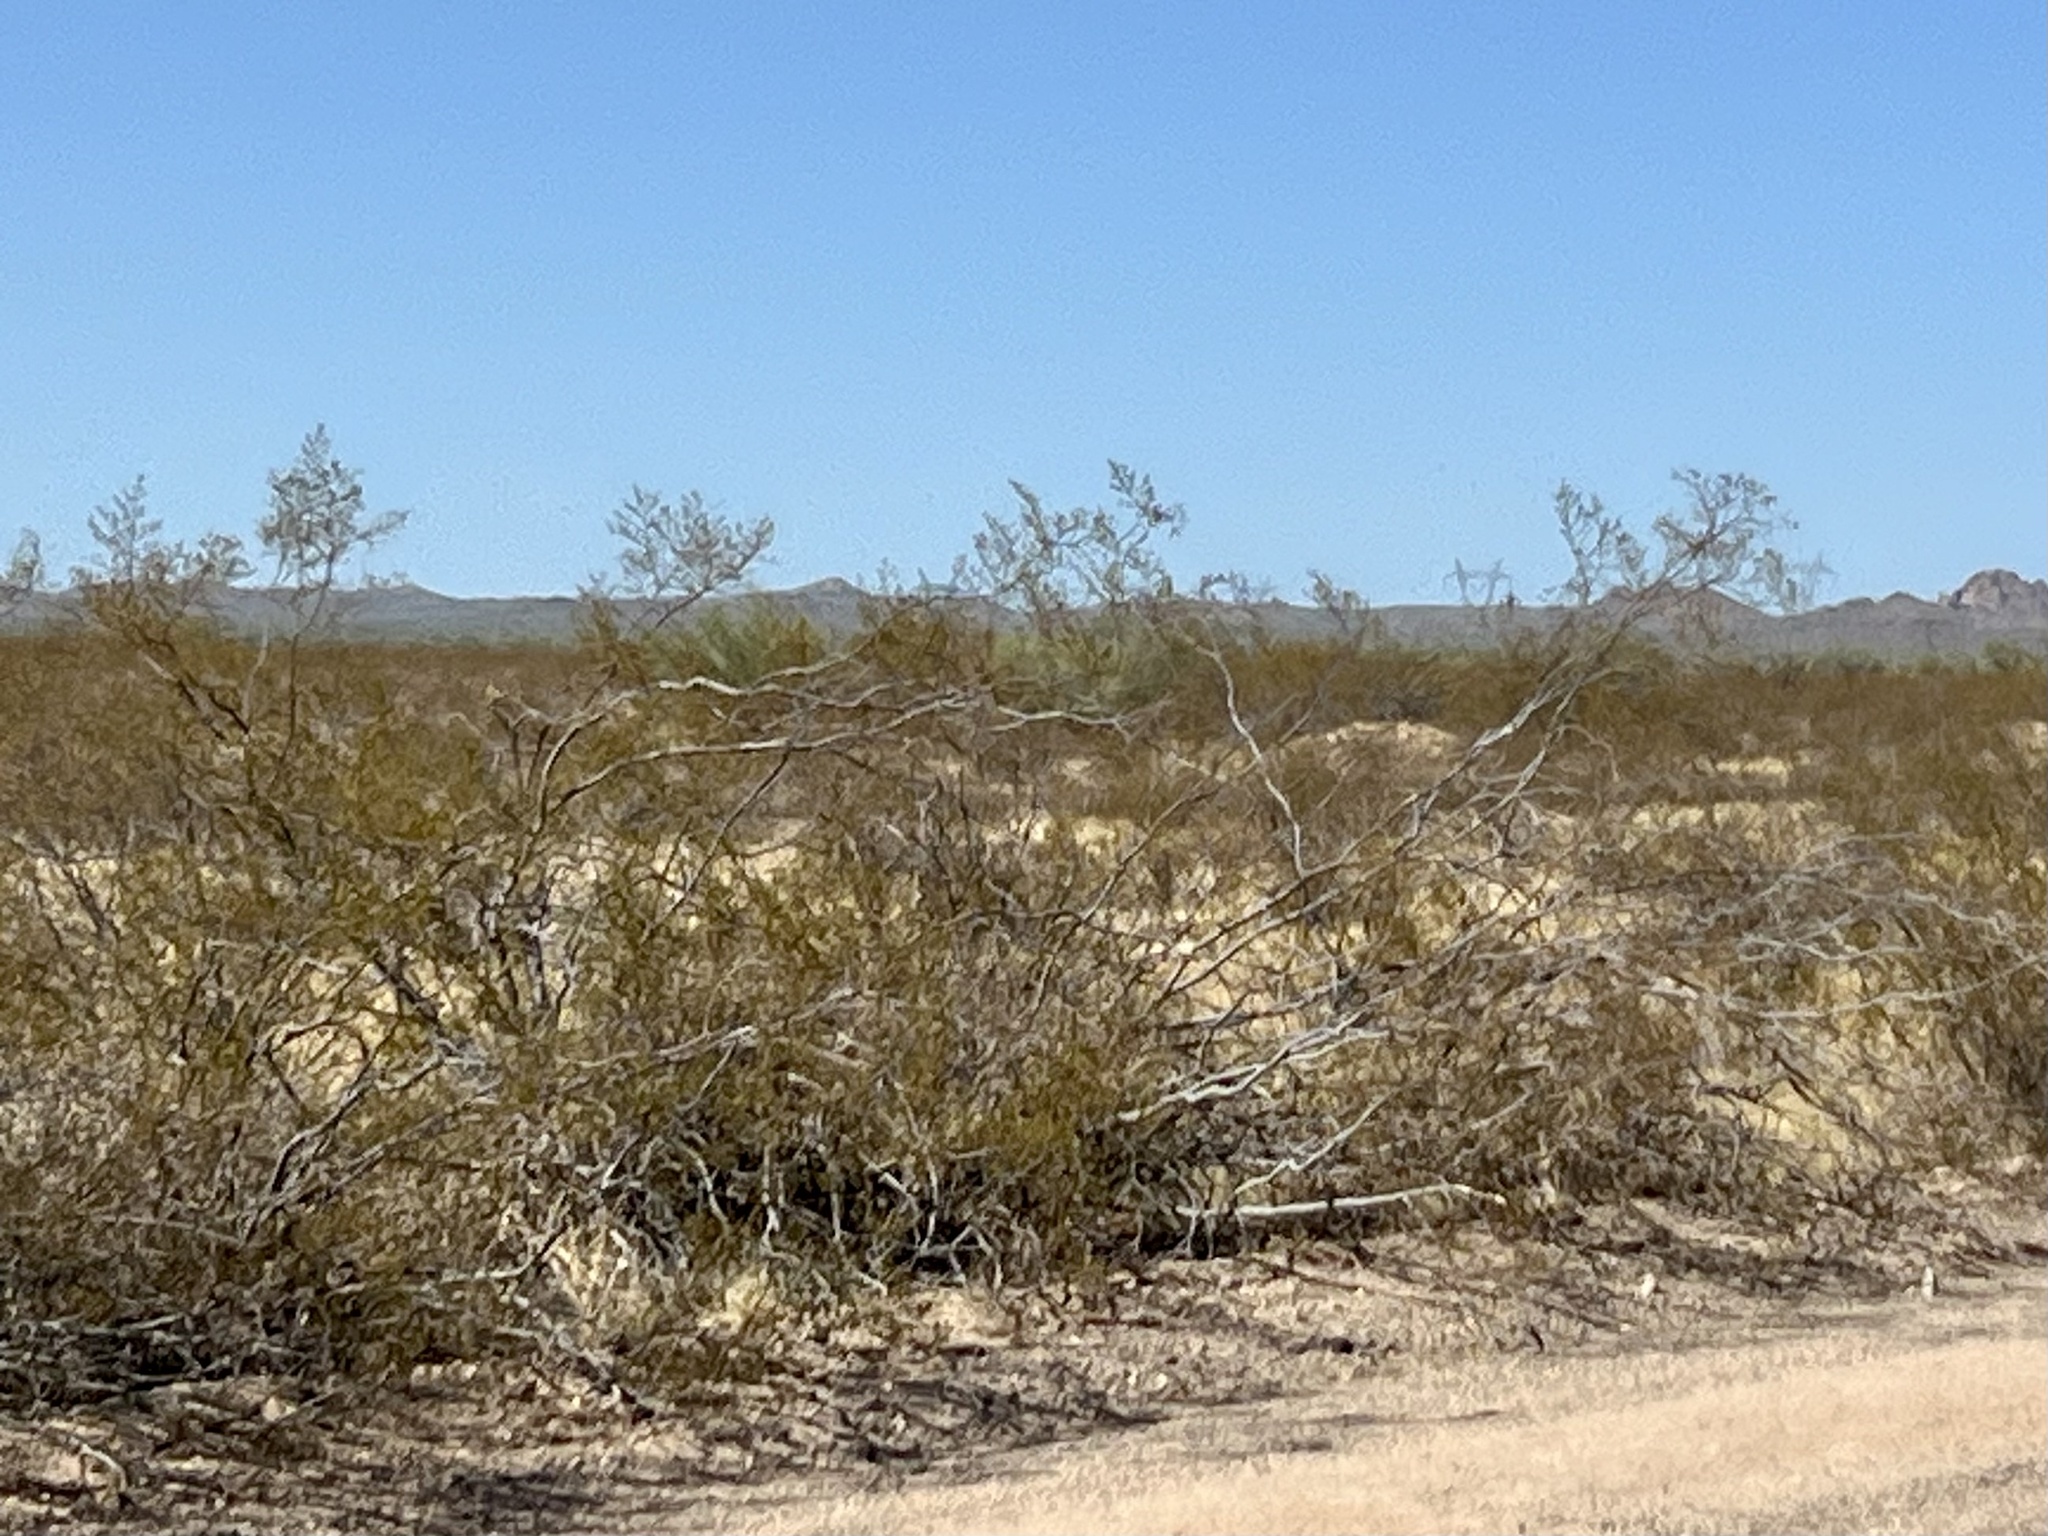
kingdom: Plantae
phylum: Tracheophyta
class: Magnoliopsida
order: Zygophyllales
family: Zygophyllaceae
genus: Larrea
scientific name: Larrea tridentata
